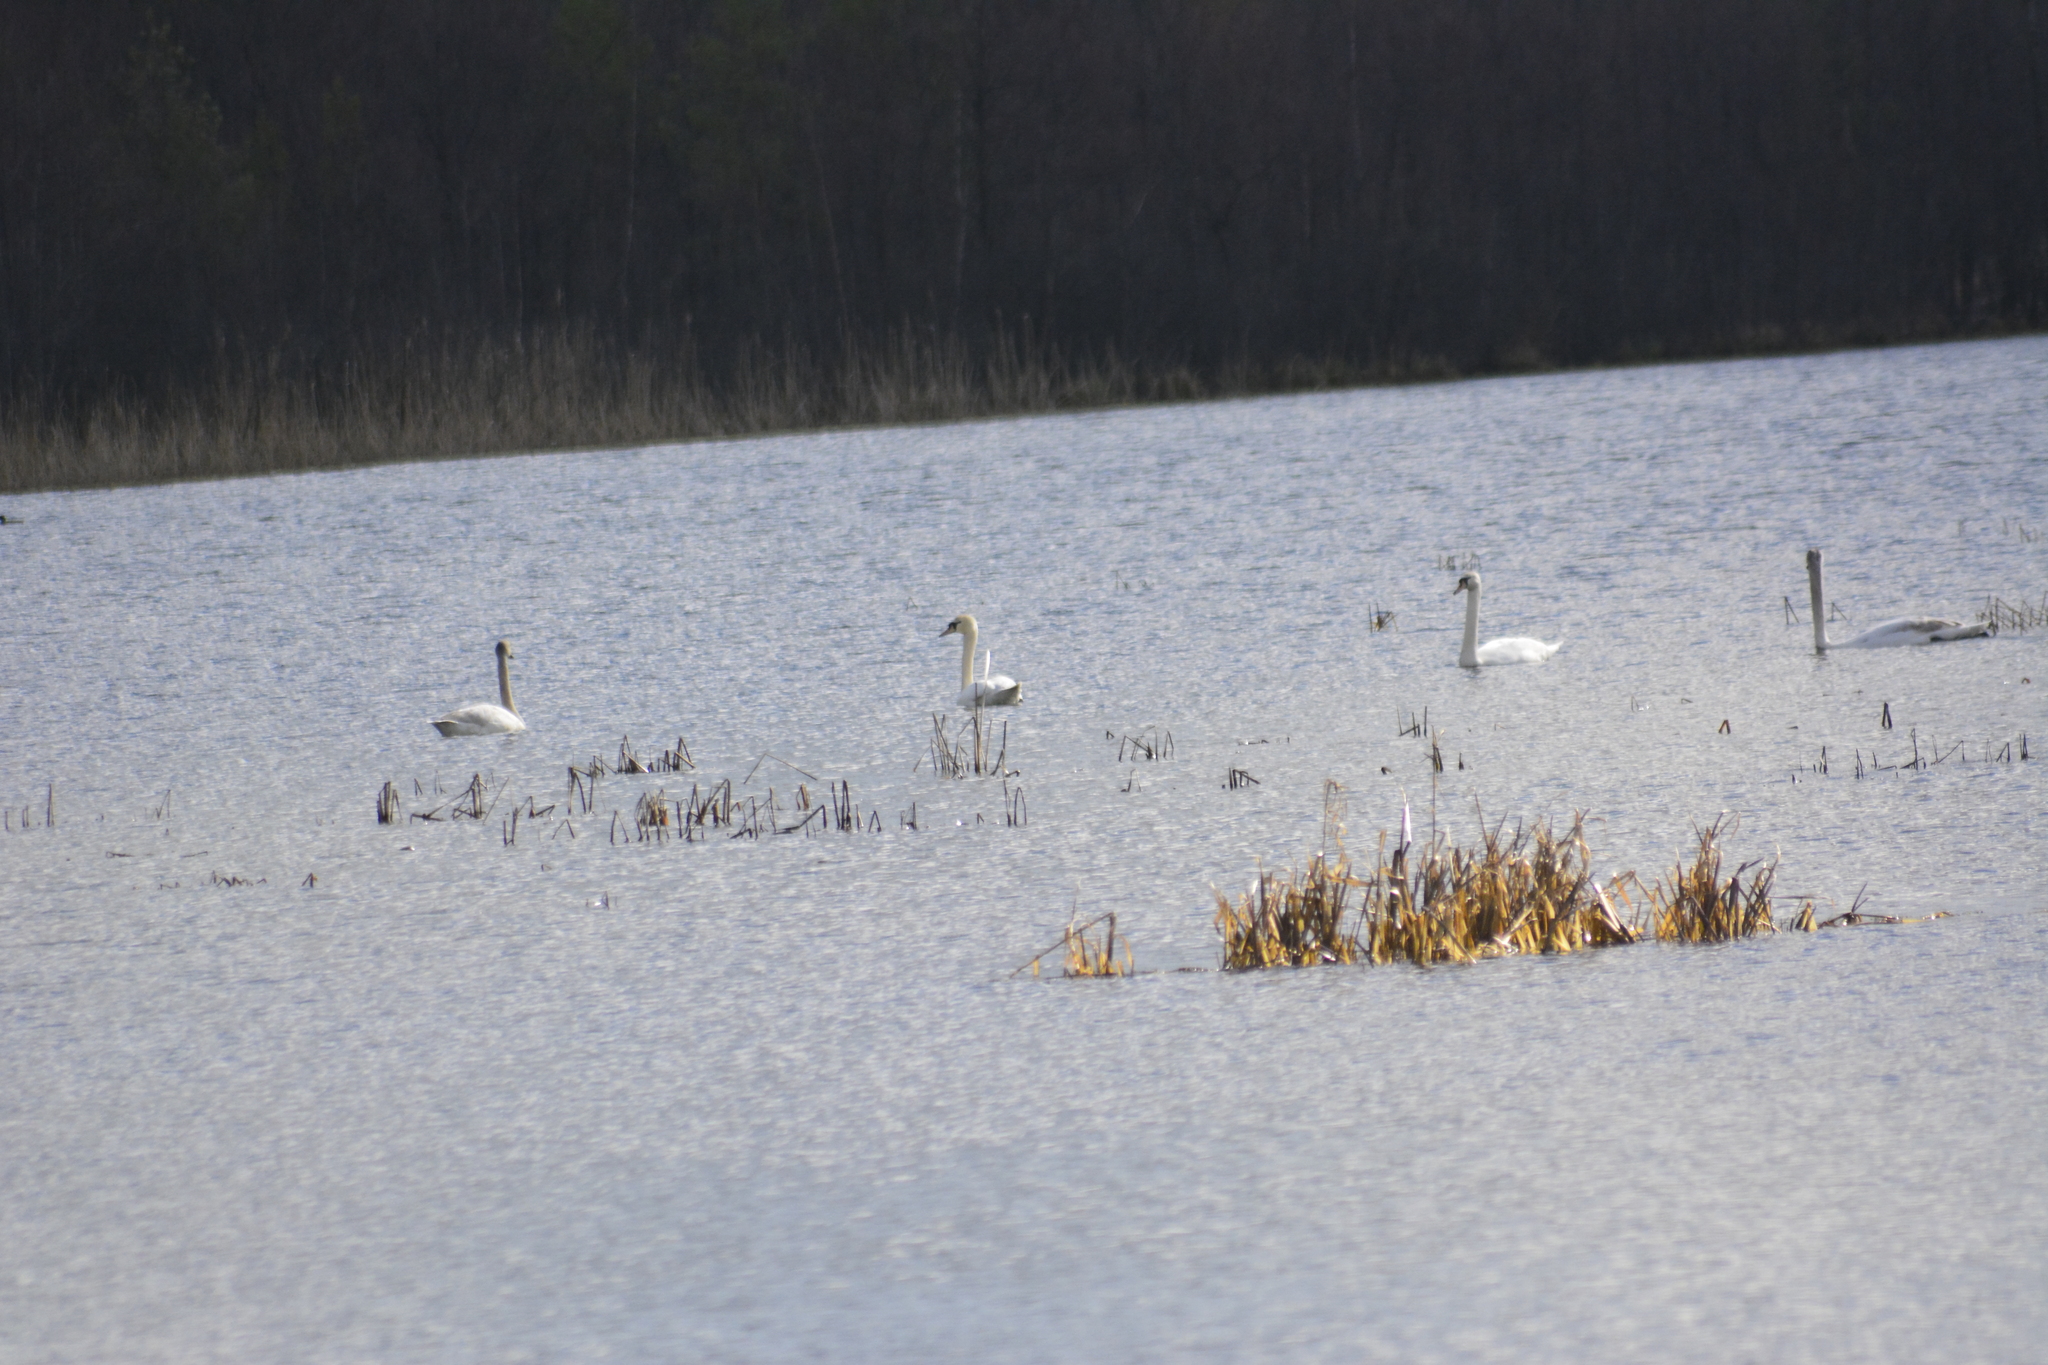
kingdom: Animalia
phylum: Chordata
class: Aves
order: Anseriformes
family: Anatidae
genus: Cygnus
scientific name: Cygnus olor
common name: Mute swan
